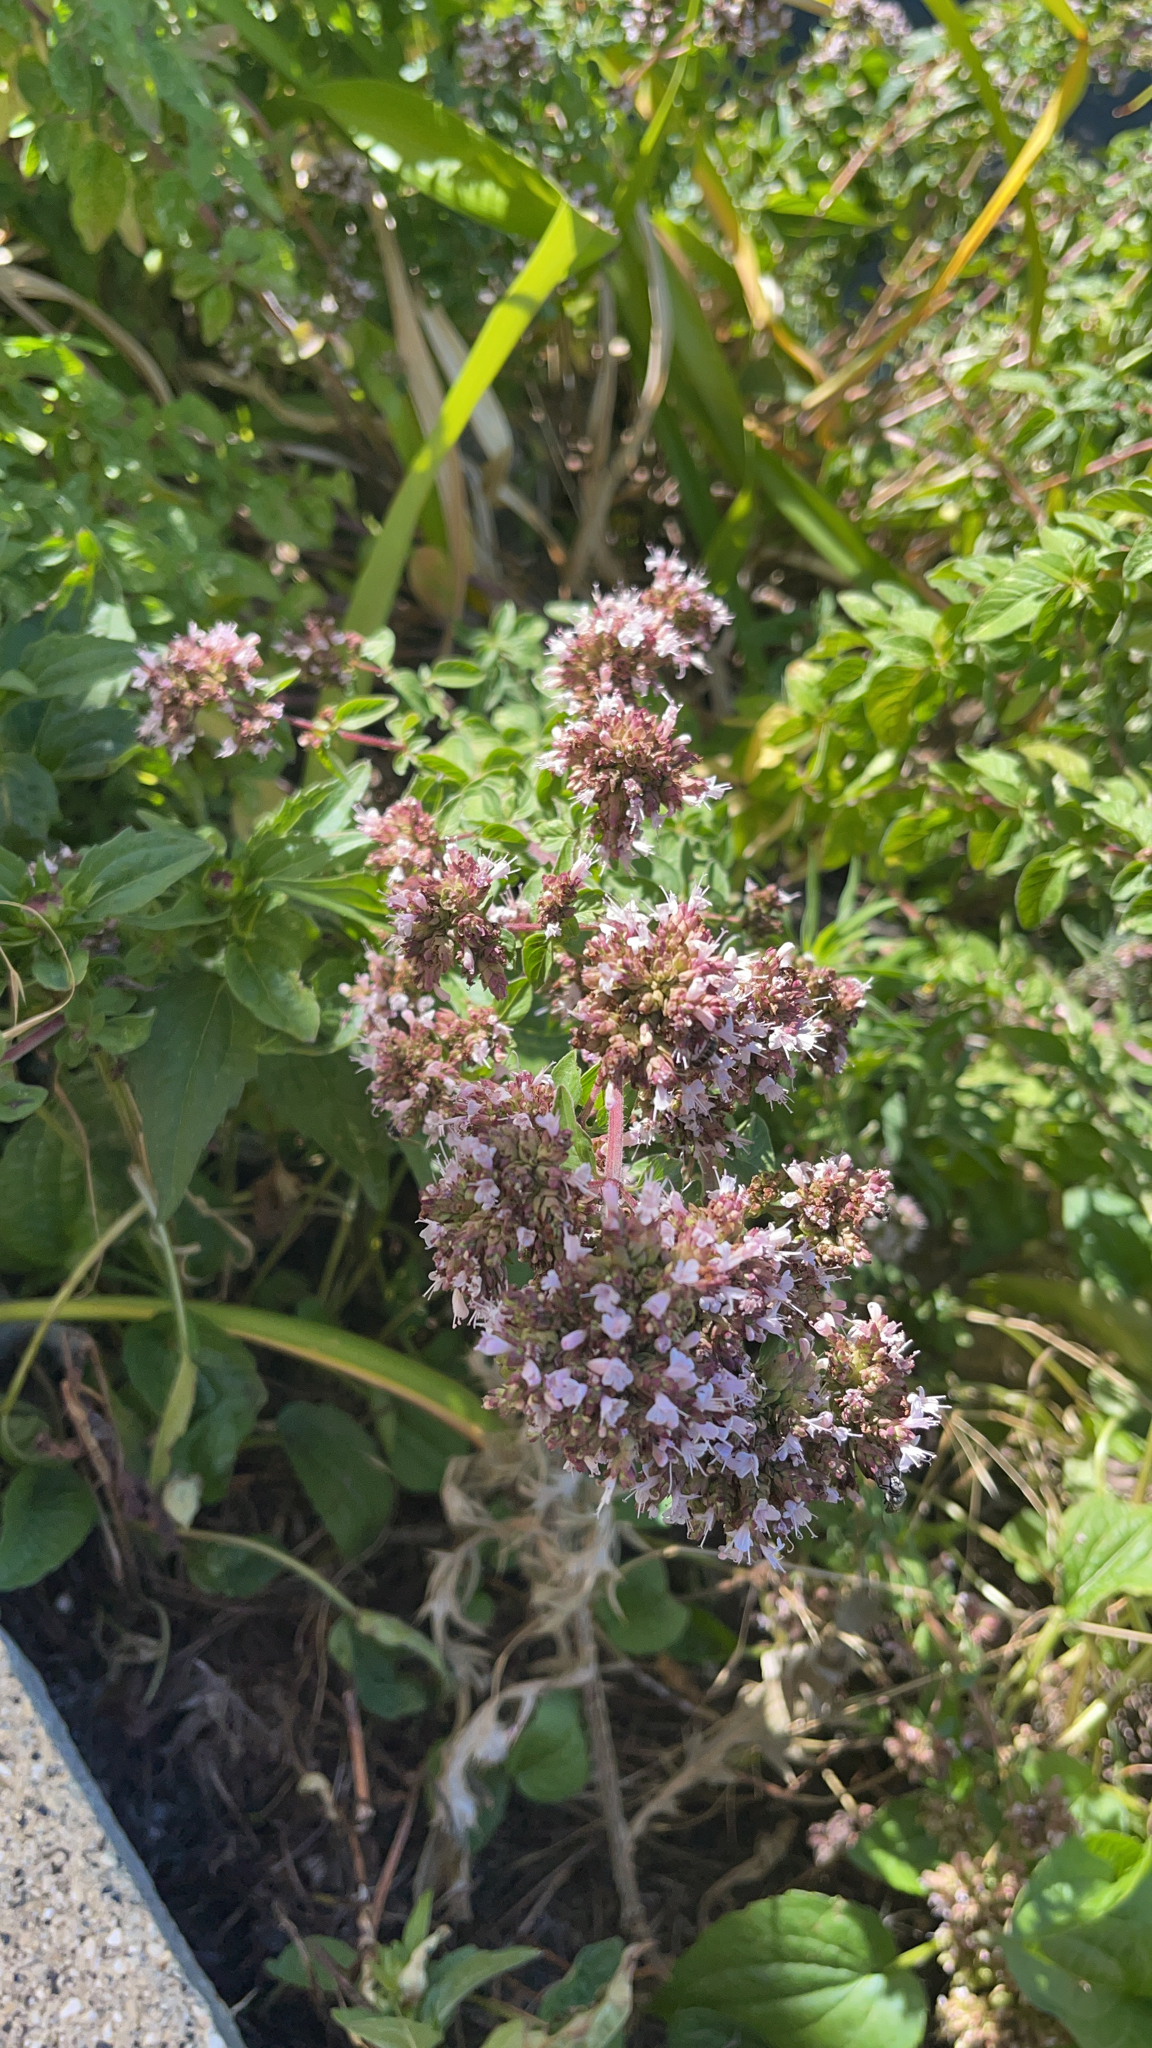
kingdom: Plantae
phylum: Tracheophyta
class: Magnoliopsida
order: Lamiales
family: Lamiaceae
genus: Origanum
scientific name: Origanum vulgare
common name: Wild marjoram
